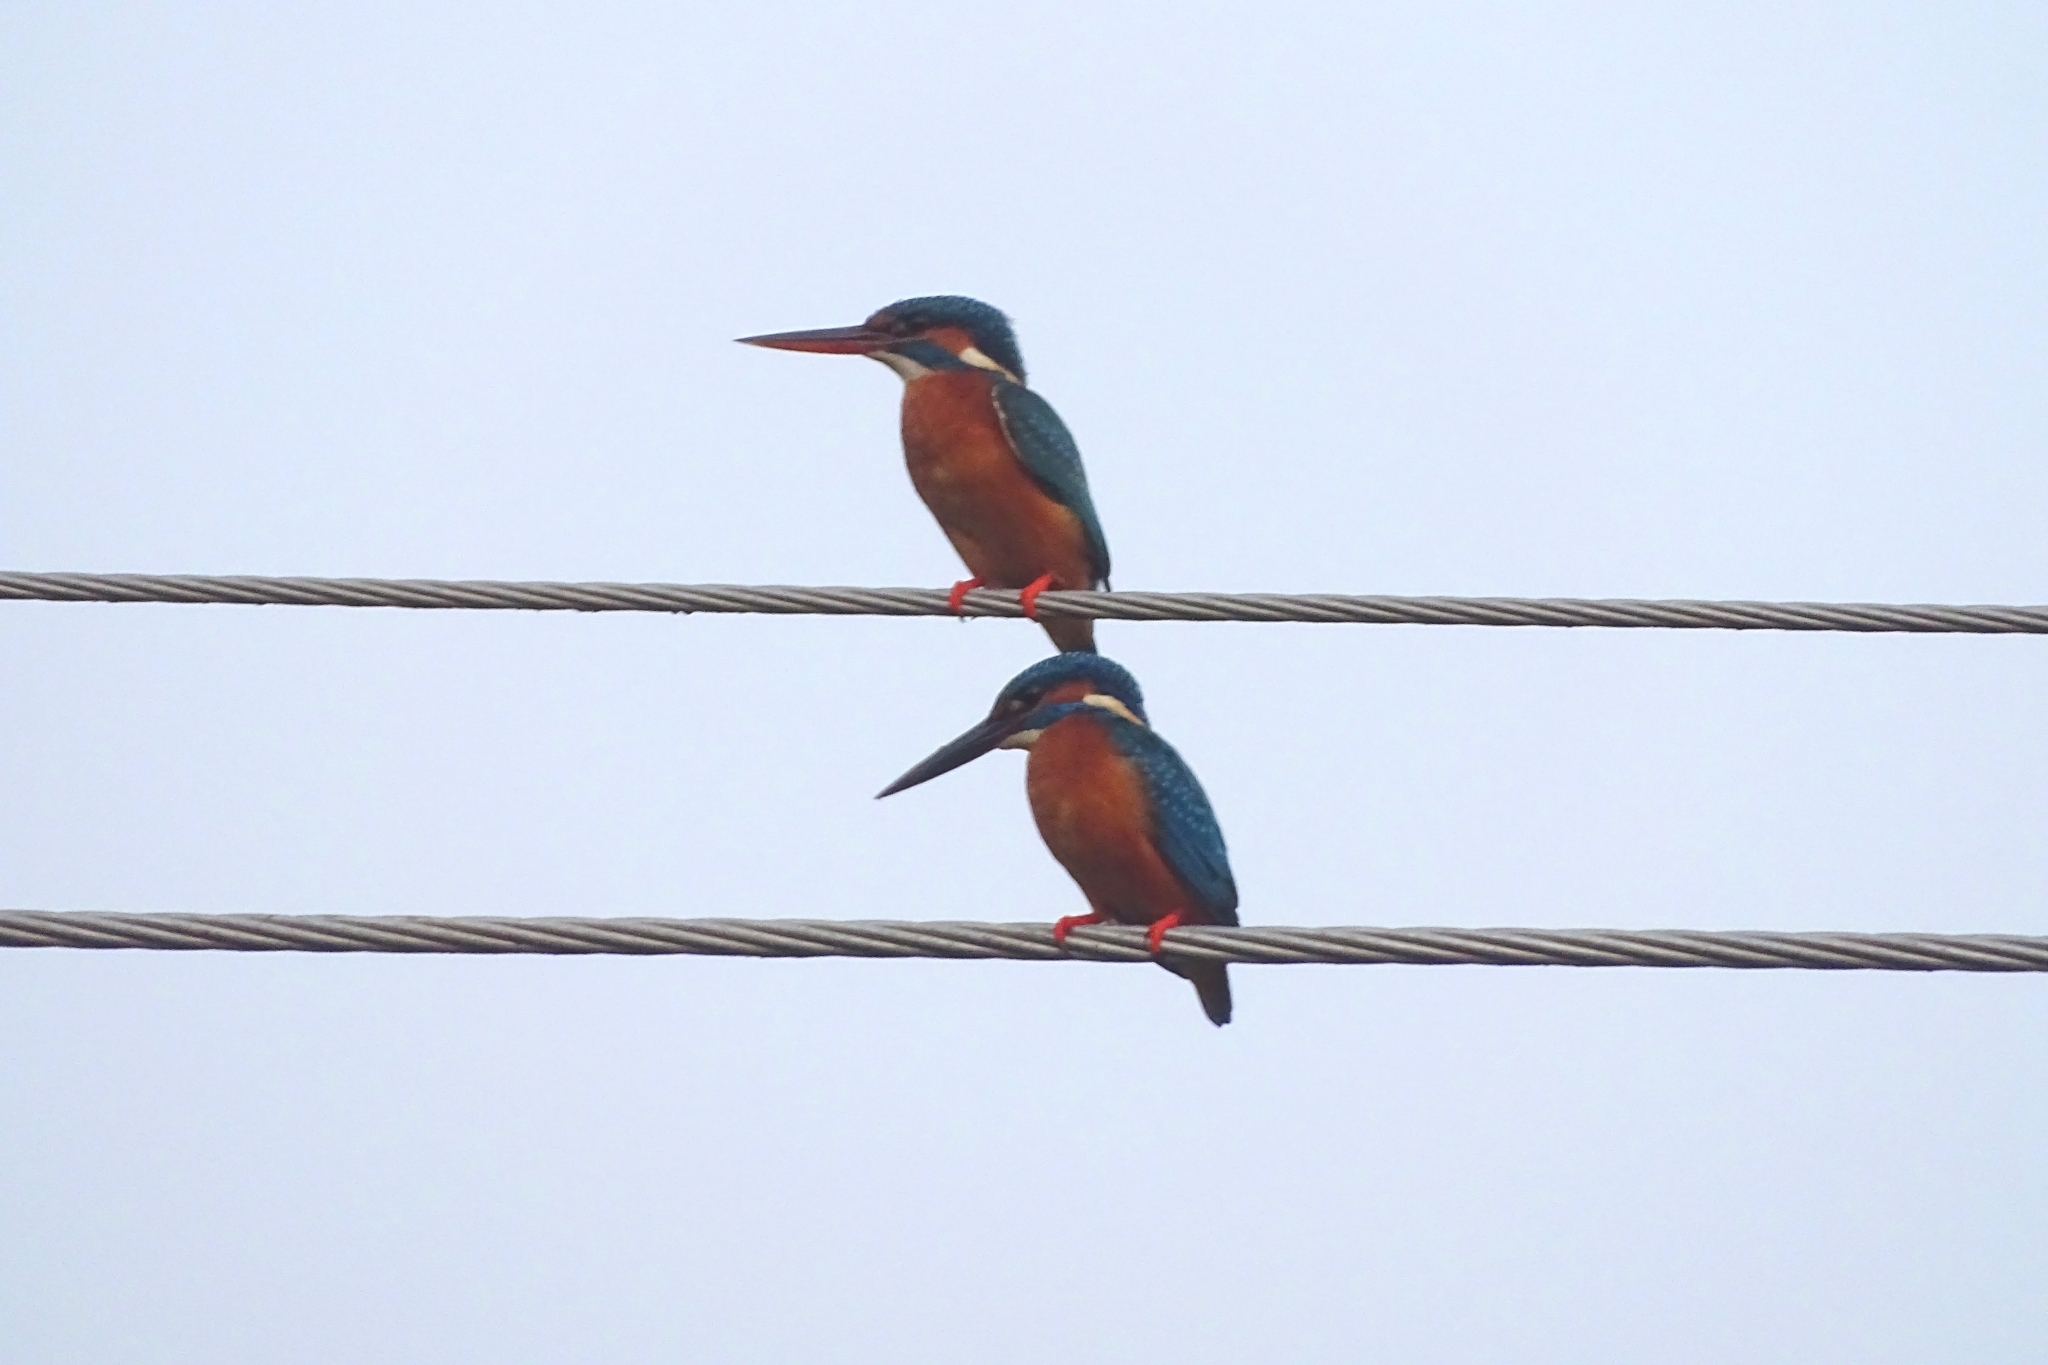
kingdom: Animalia
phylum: Chordata
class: Aves
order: Coraciiformes
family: Alcedinidae
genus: Alcedo
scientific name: Alcedo atthis
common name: Common kingfisher
